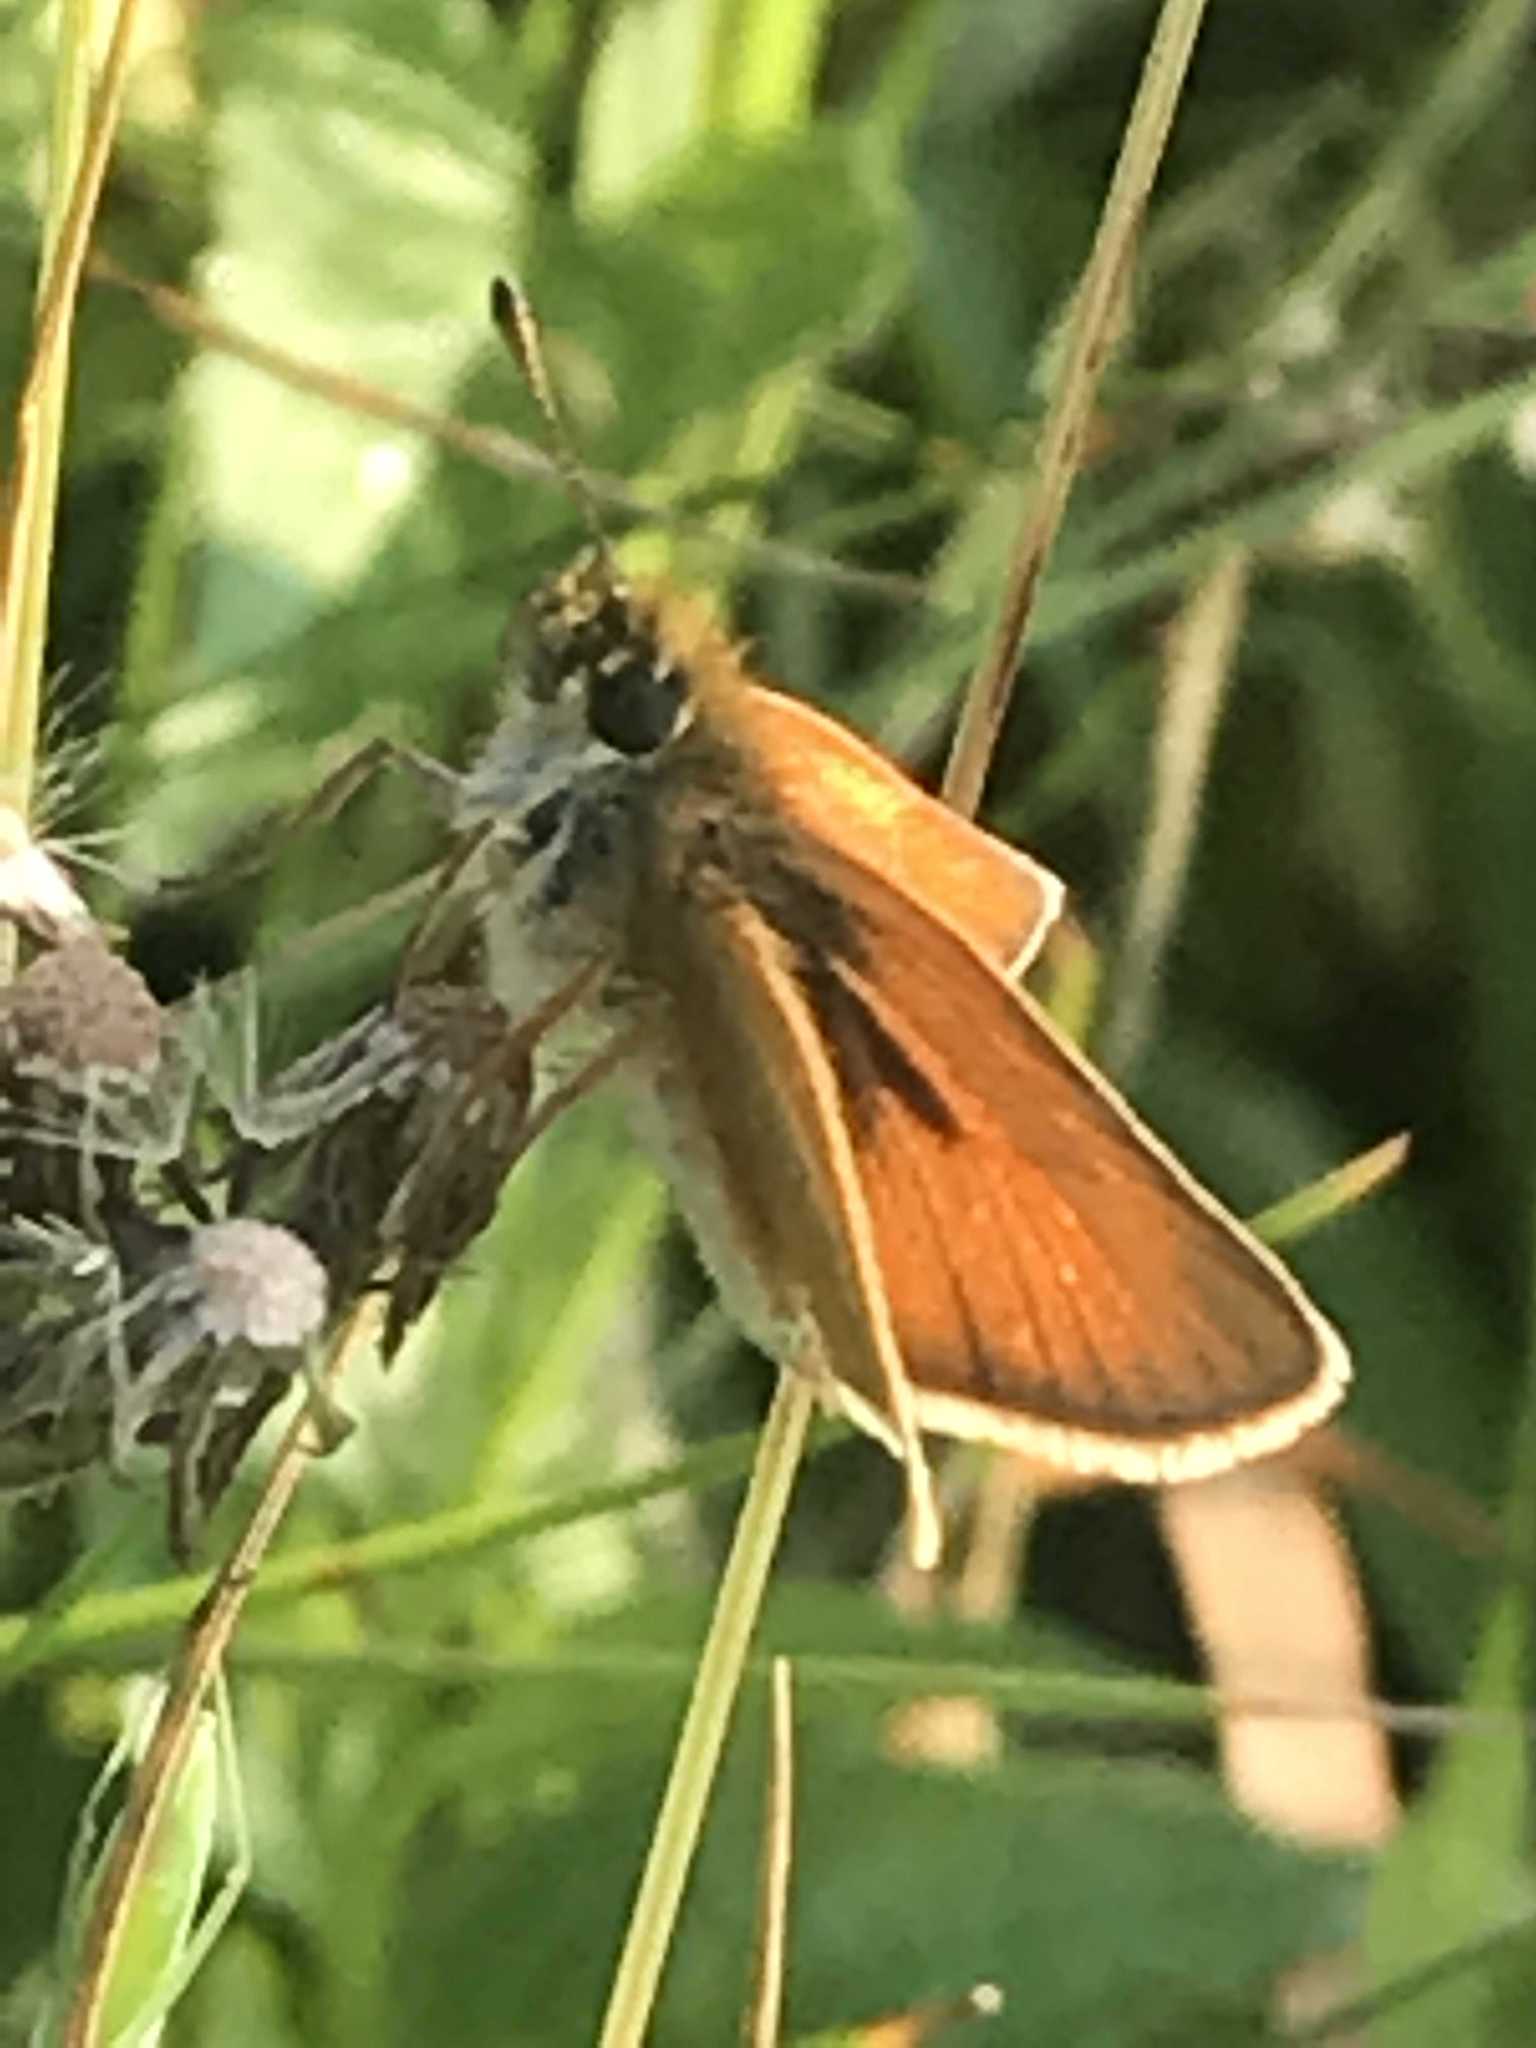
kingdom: Animalia
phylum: Arthropoda
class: Insecta
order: Lepidoptera
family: Hesperiidae
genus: Thymelicus
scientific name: Thymelicus lineola
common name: Essex skipper
